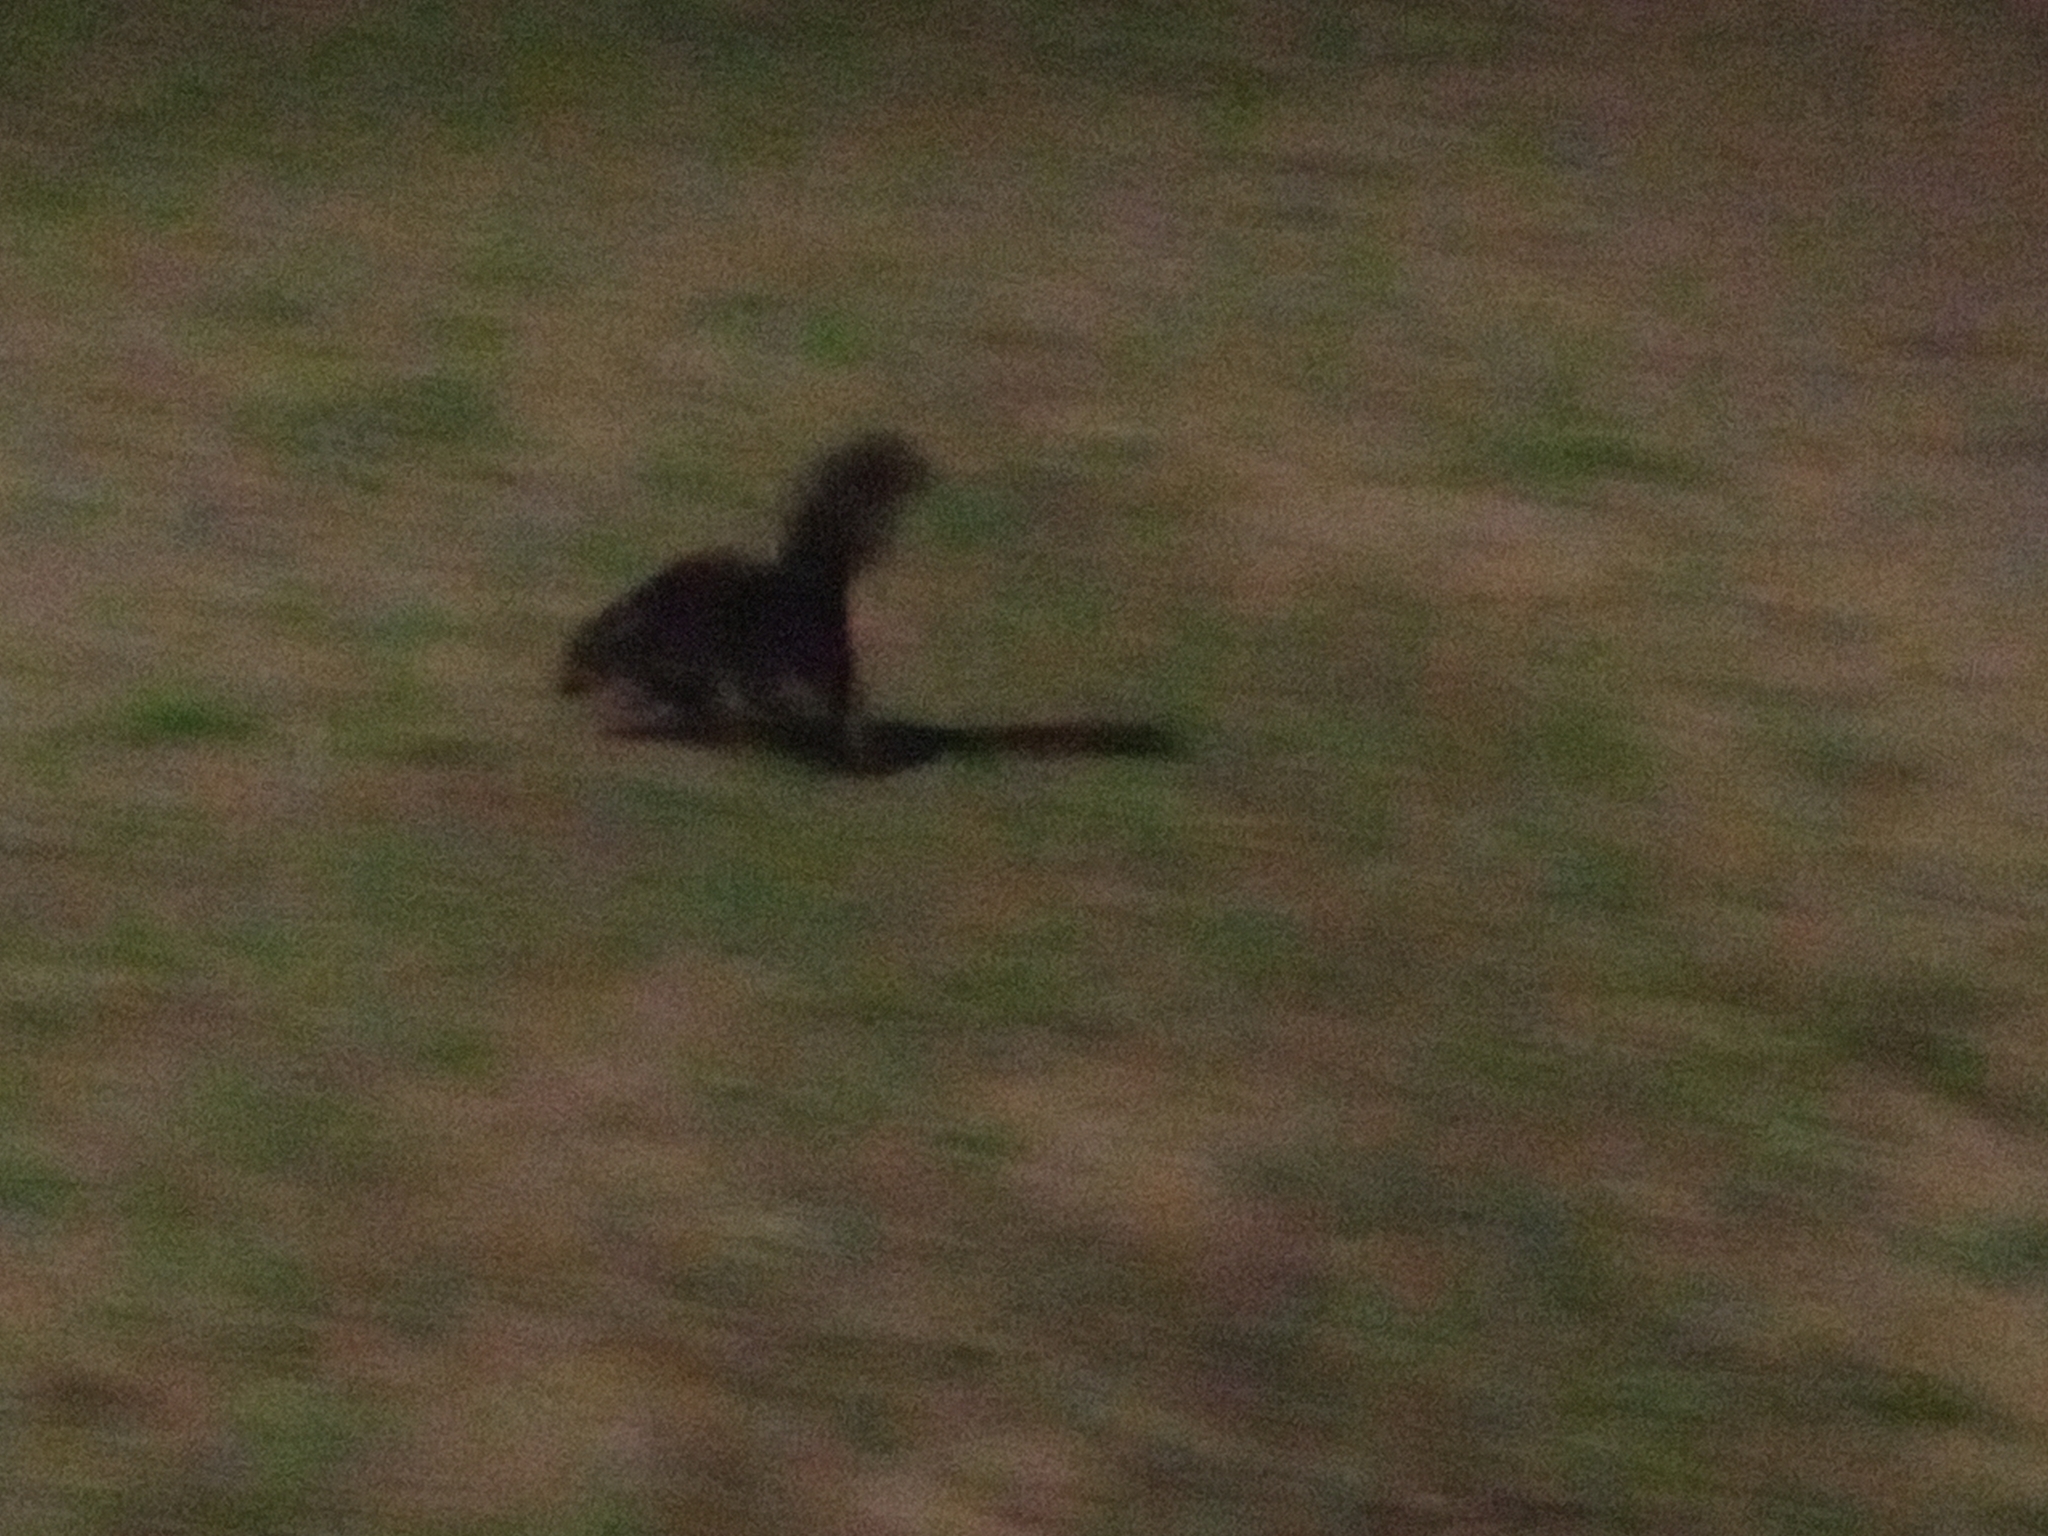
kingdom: Animalia
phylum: Chordata
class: Mammalia
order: Carnivora
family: Mephitidae
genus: Conepatus
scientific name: Conepatus chinga
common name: Molina's hog-nosed skunk
